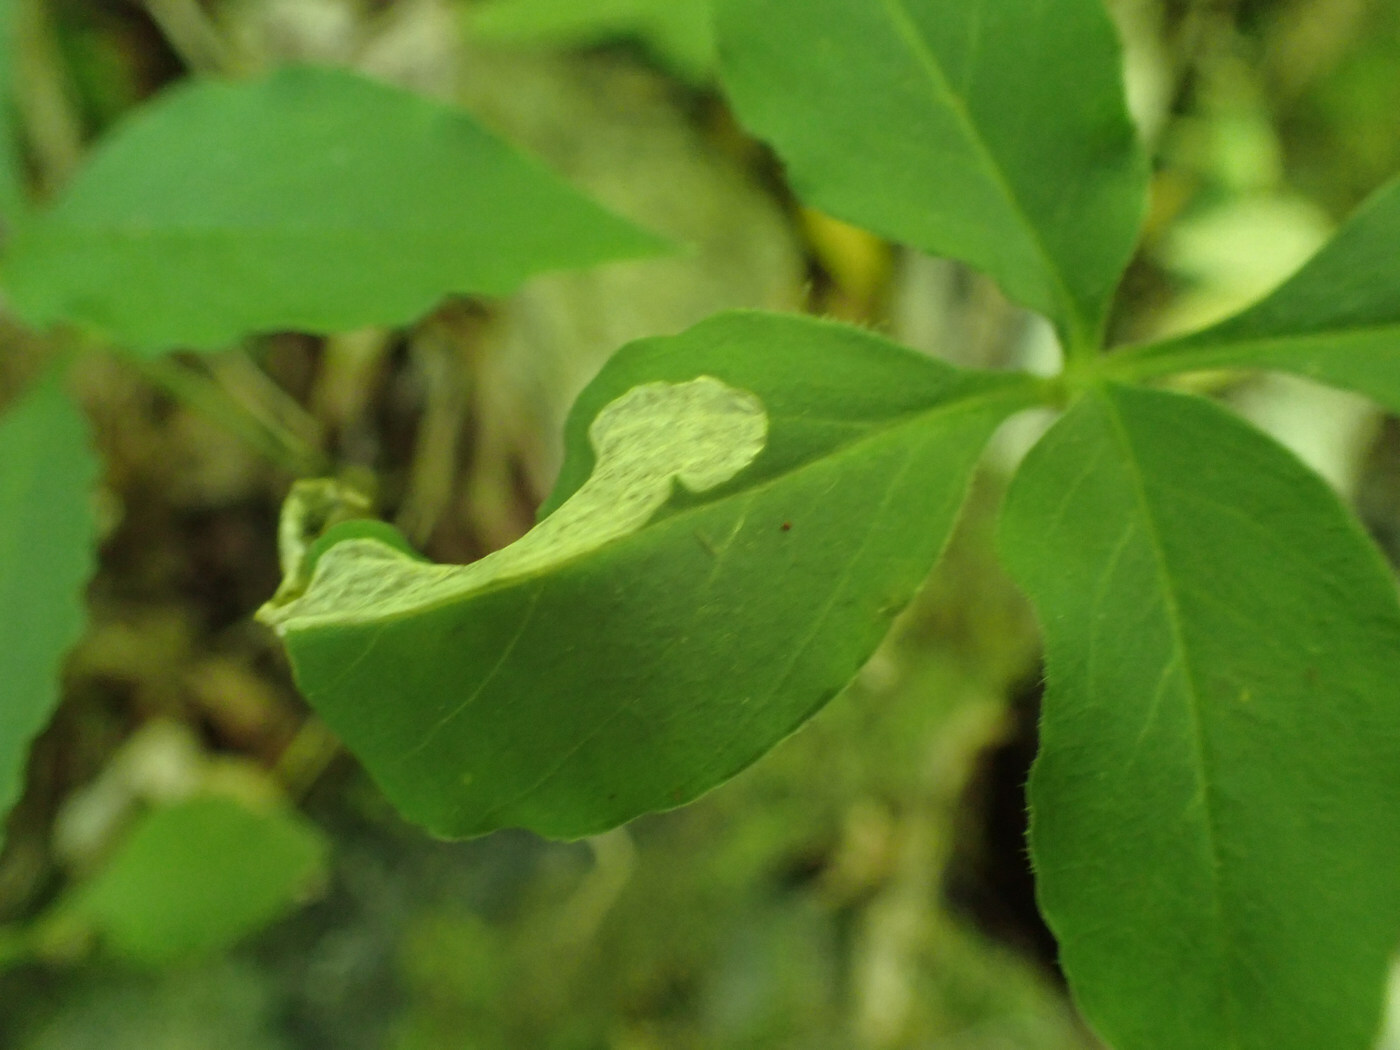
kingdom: Animalia
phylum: Arthropoda
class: Insecta
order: Diptera
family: Anthomyiidae
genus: Pegomya
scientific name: Pegomya flavifrons
